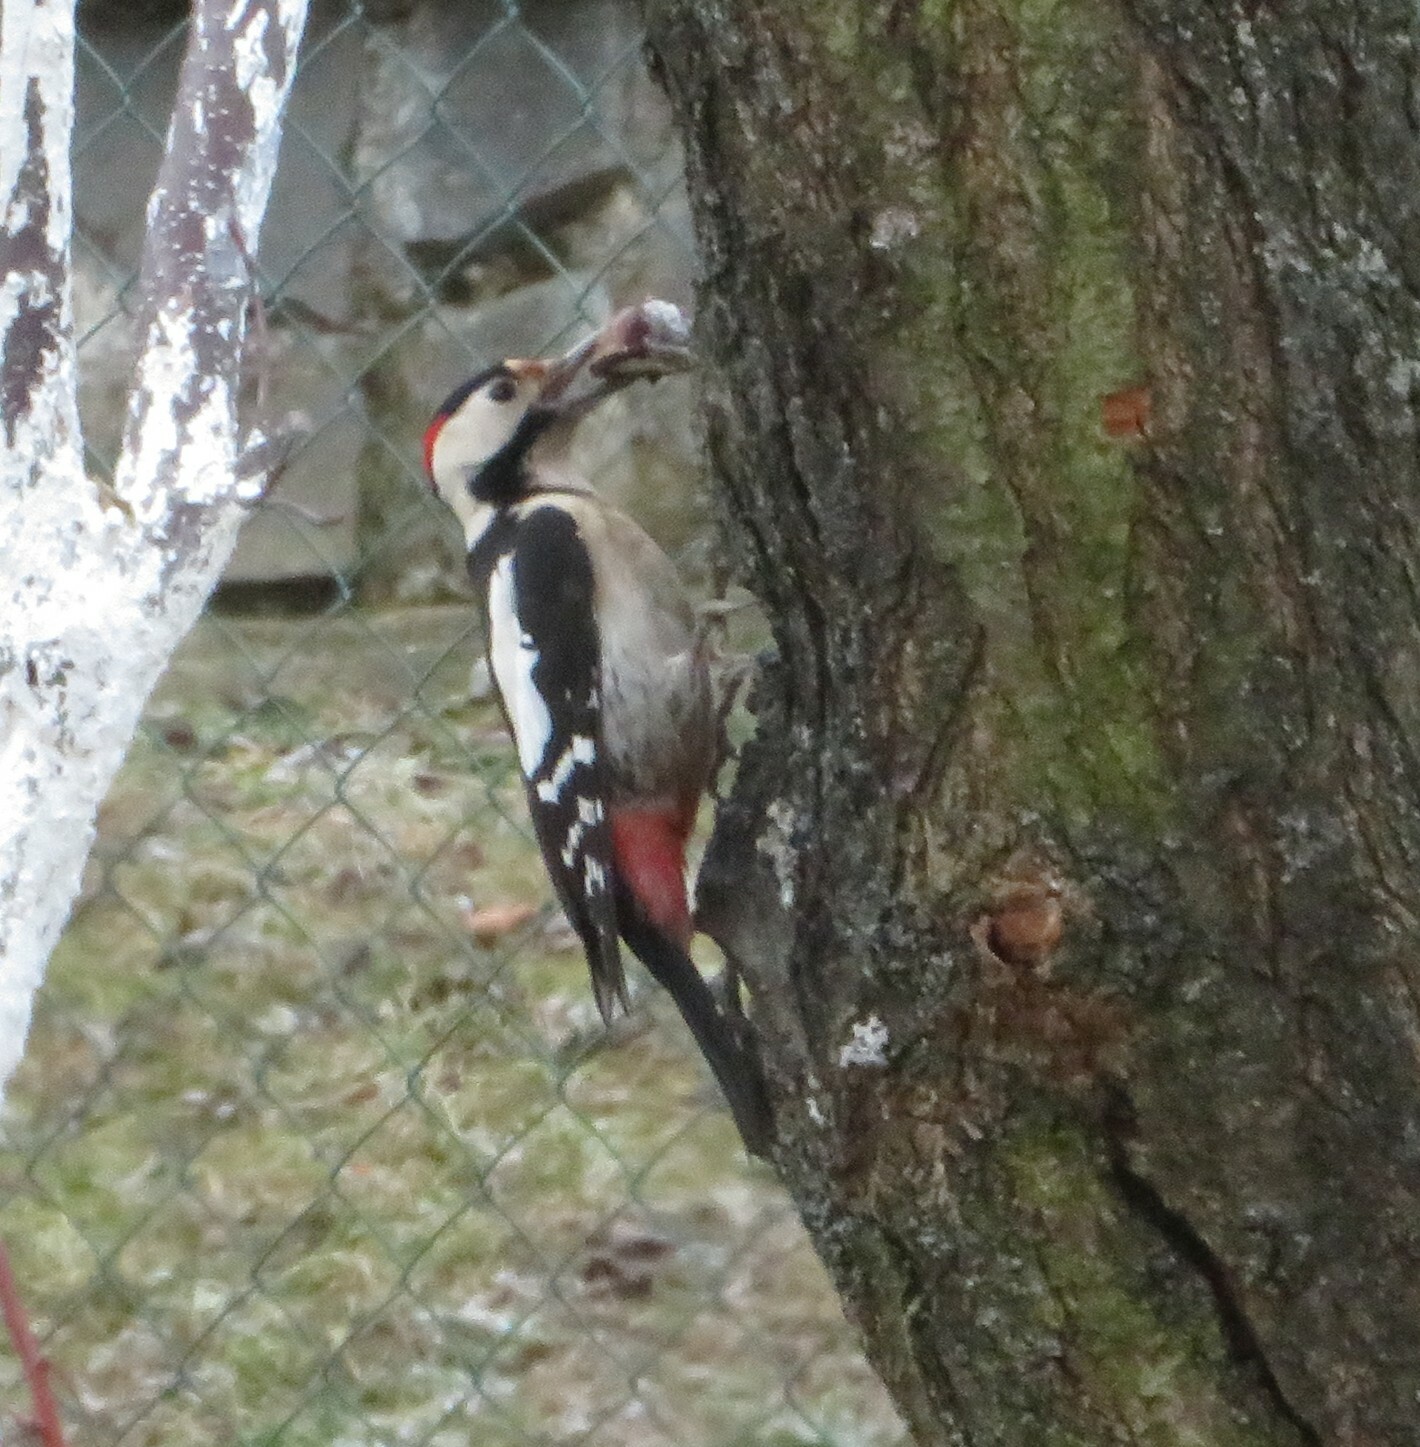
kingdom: Animalia
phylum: Chordata
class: Aves
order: Piciformes
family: Picidae
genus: Dendrocopos
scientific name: Dendrocopos syriacus
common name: Syrian woodpecker
